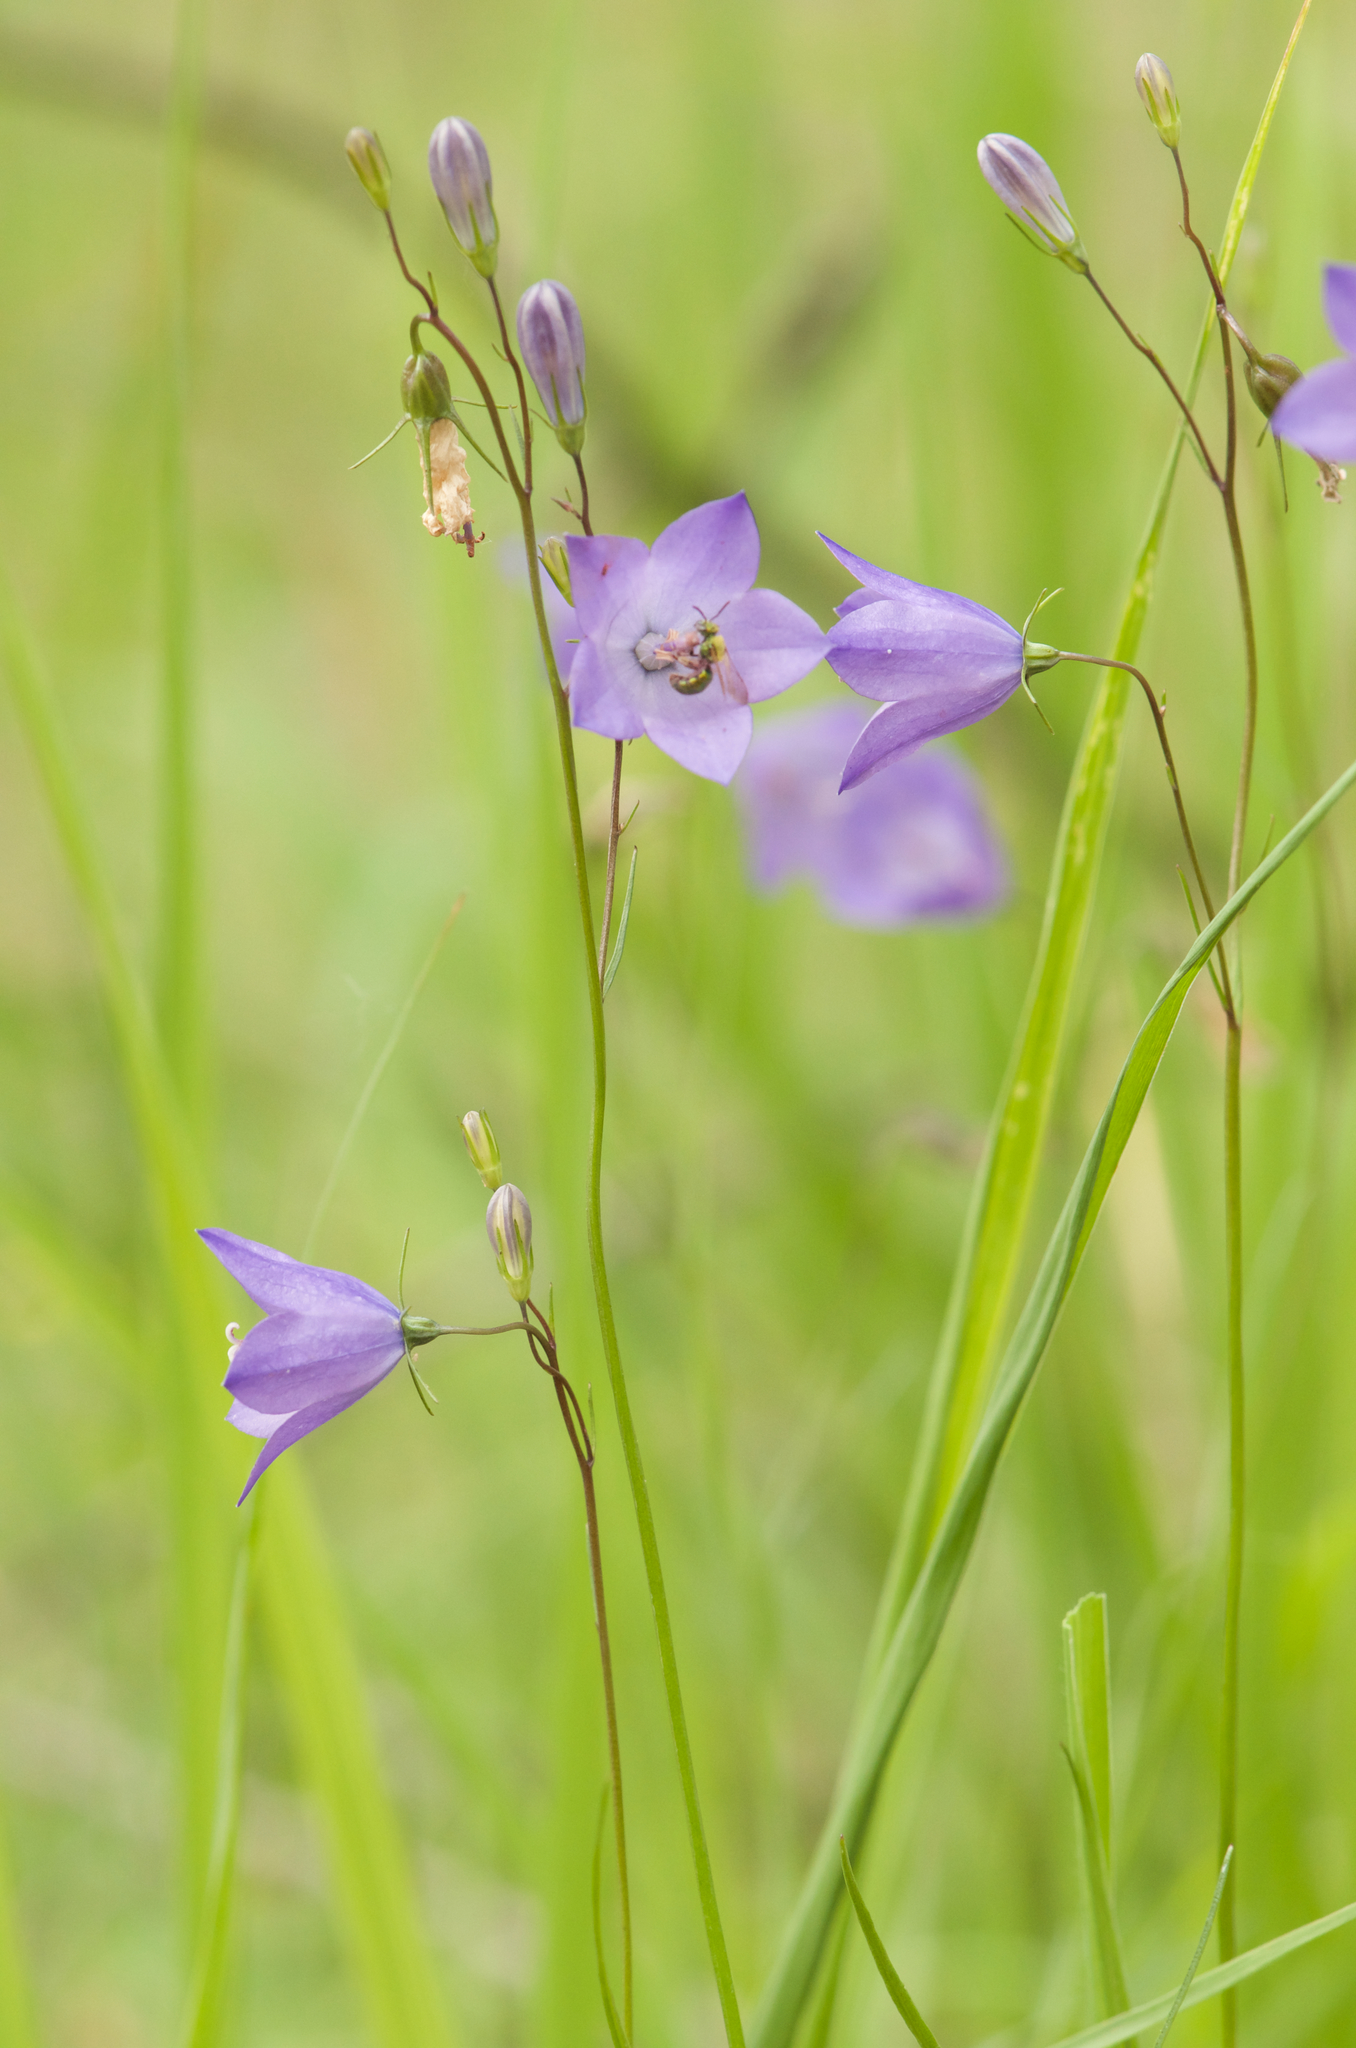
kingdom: Plantae
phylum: Tracheophyta
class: Magnoliopsida
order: Asterales
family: Campanulaceae
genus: Campanula
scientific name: Campanula intercedens
